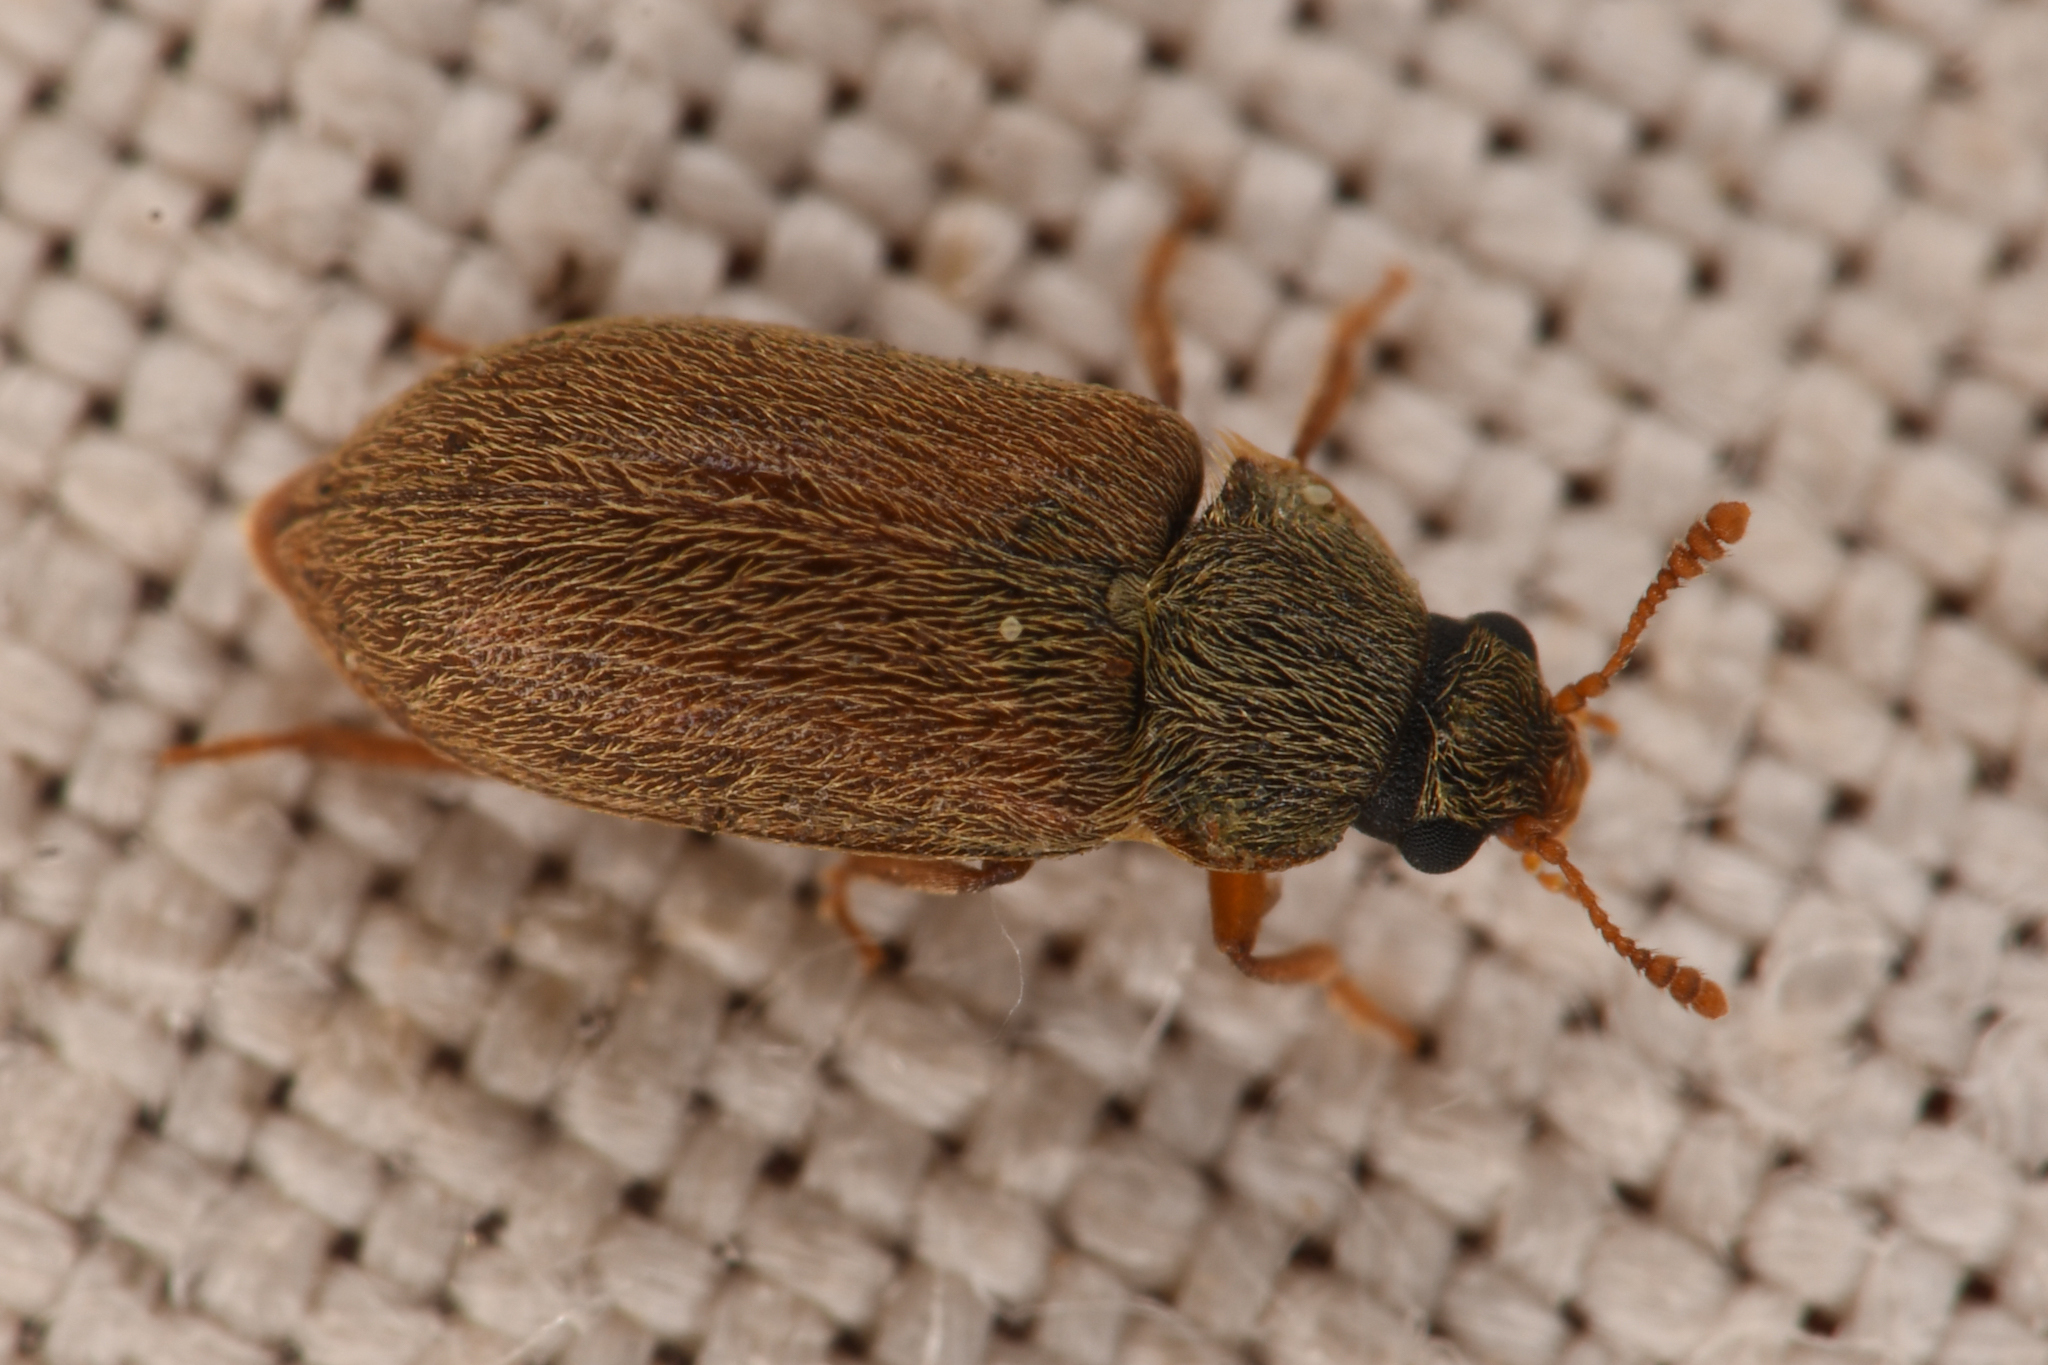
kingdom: Animalia
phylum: Arthropoda
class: Insecta
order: Coleoptera
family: Byturidae
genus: Byturus
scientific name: Byturus unicolor
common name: Raspberry fruitworm beetle
